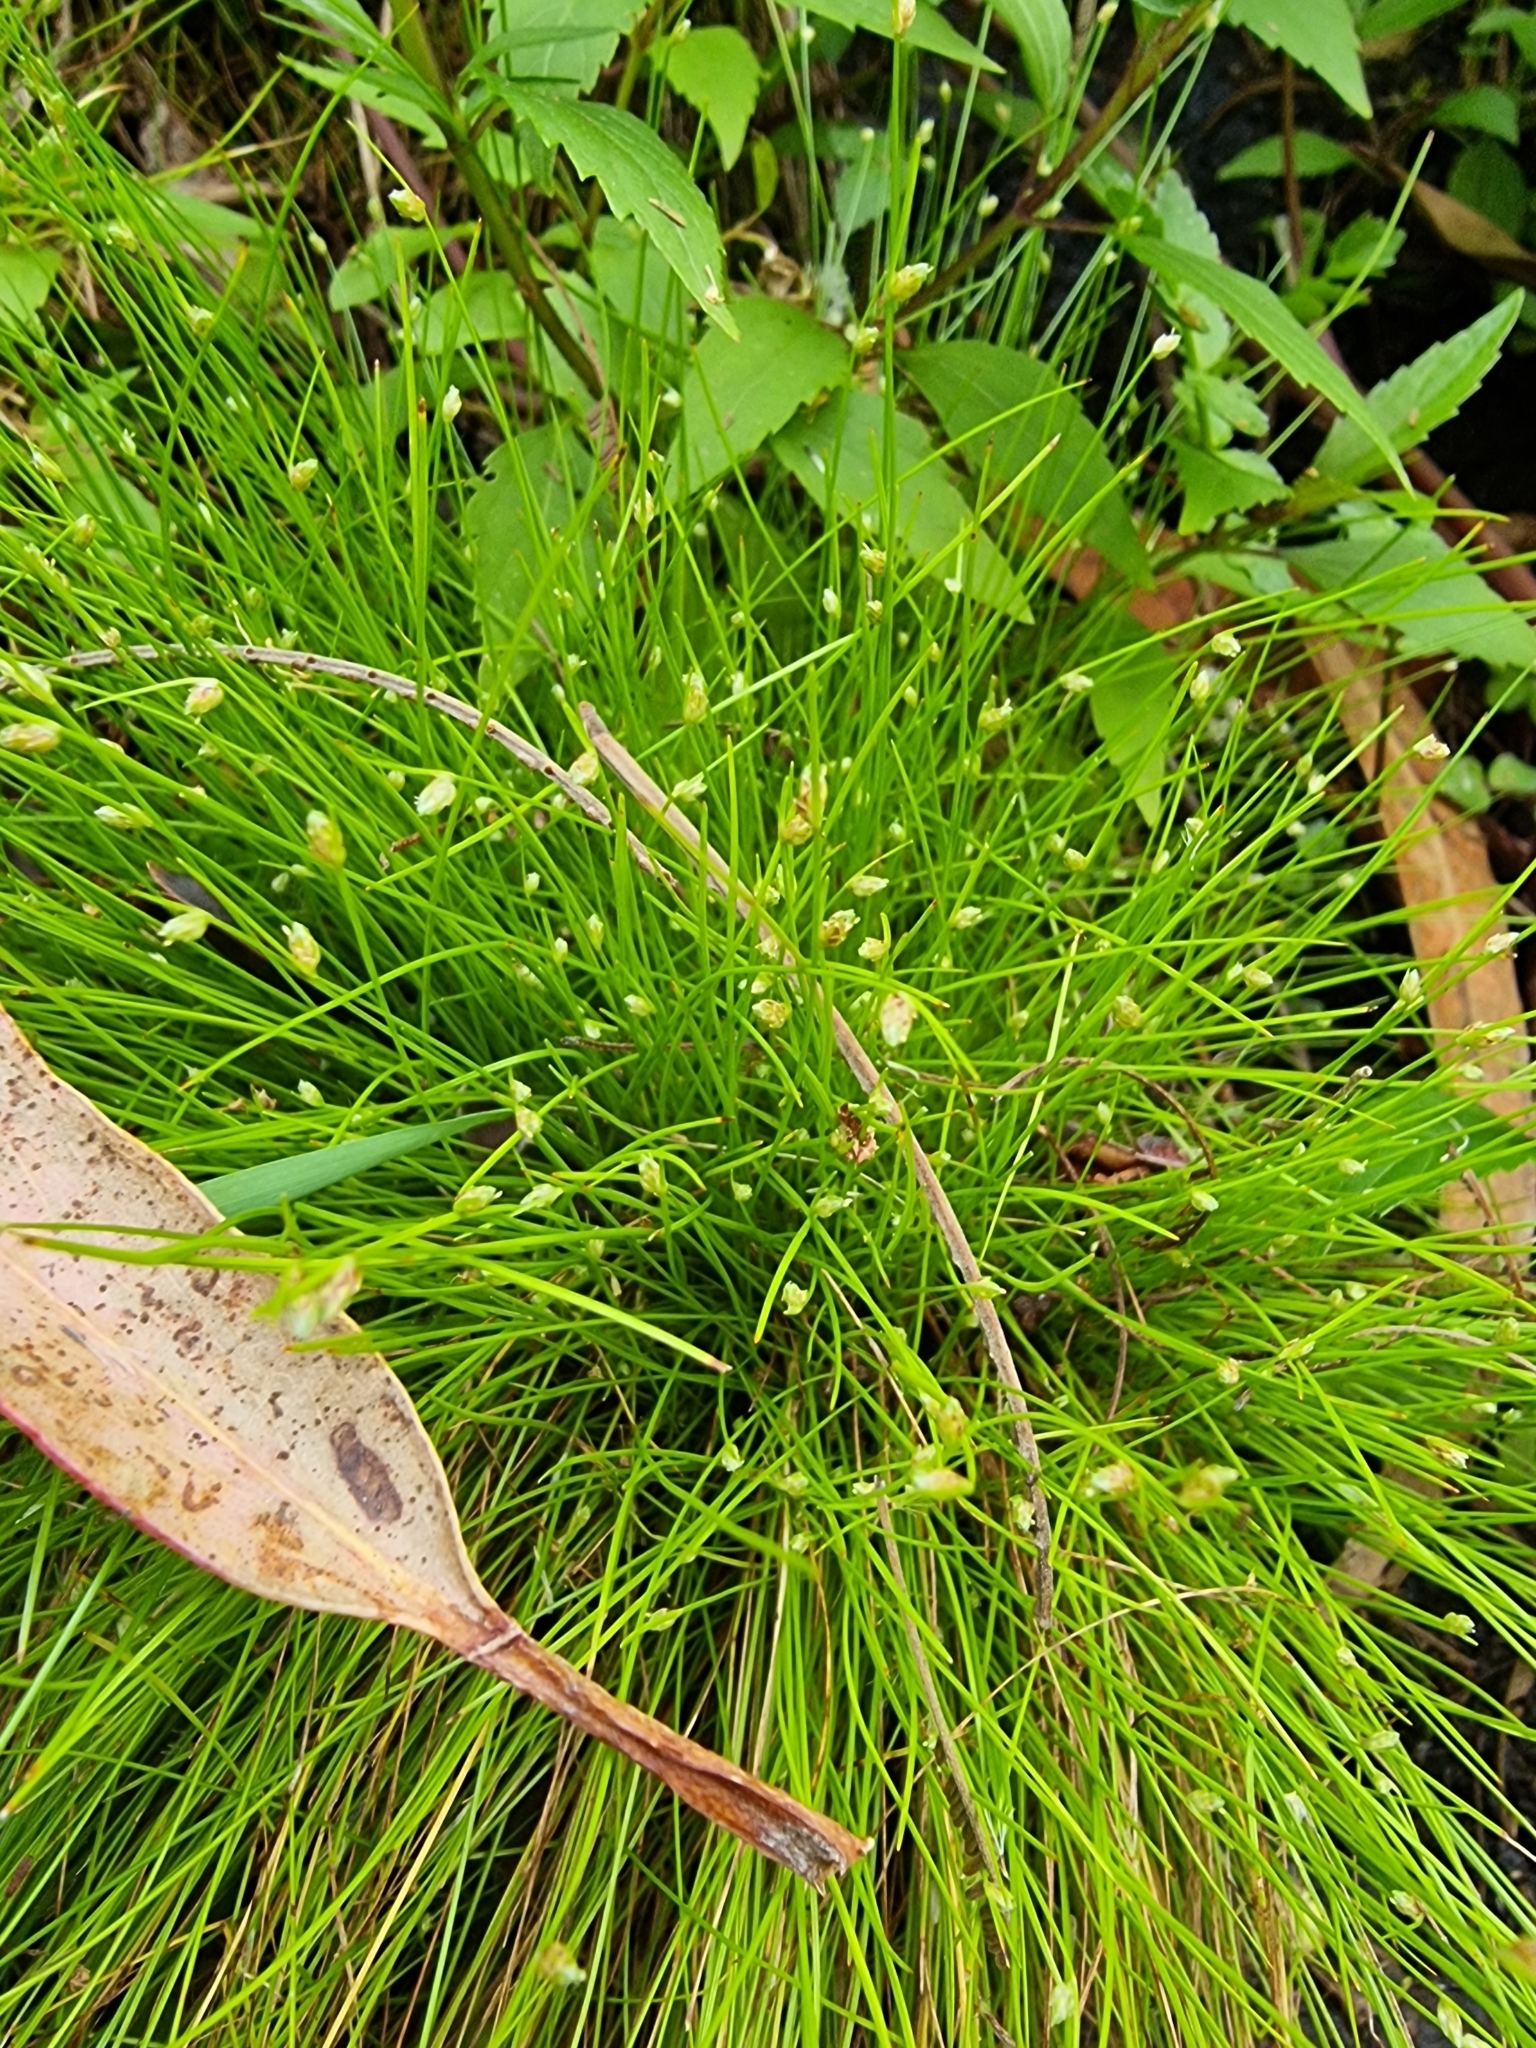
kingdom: Plantae
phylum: Tracheophyta
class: Liliopsida
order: Poales
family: Cyperaceae
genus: Isolepis
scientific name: Isolepis cernua
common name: Slender club-rush
